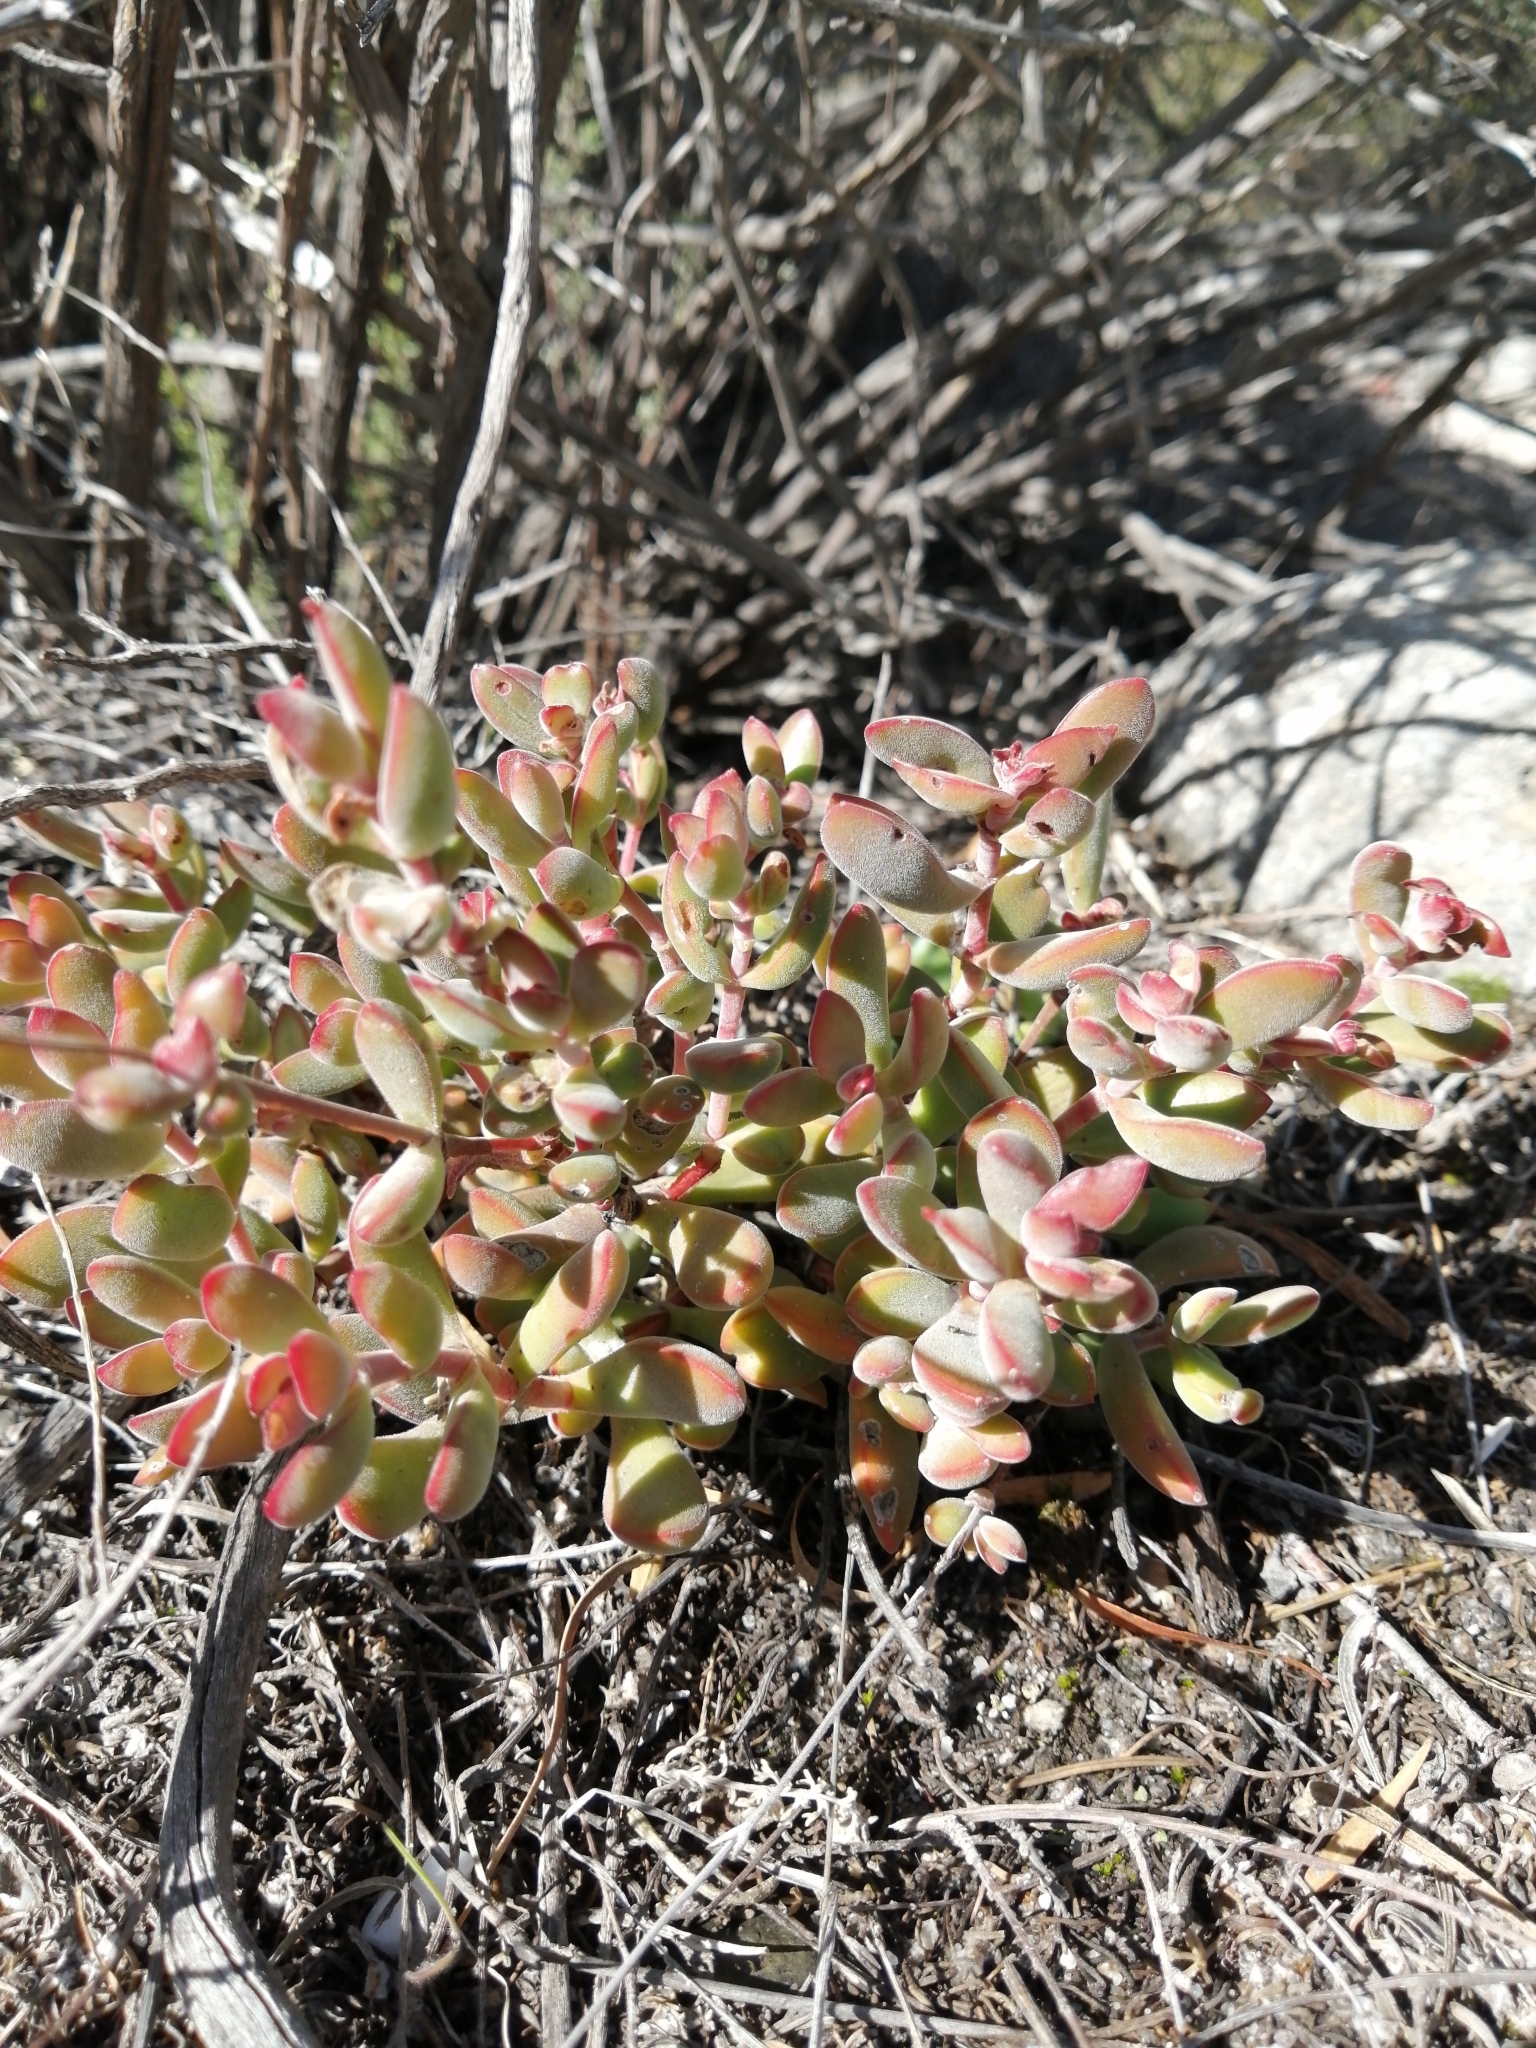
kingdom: Plantae
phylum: Tracheophyta
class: Magnoliopsida
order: Saxifragales
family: Crassulaceae
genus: Crassula
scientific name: Crassula atropurpurea
